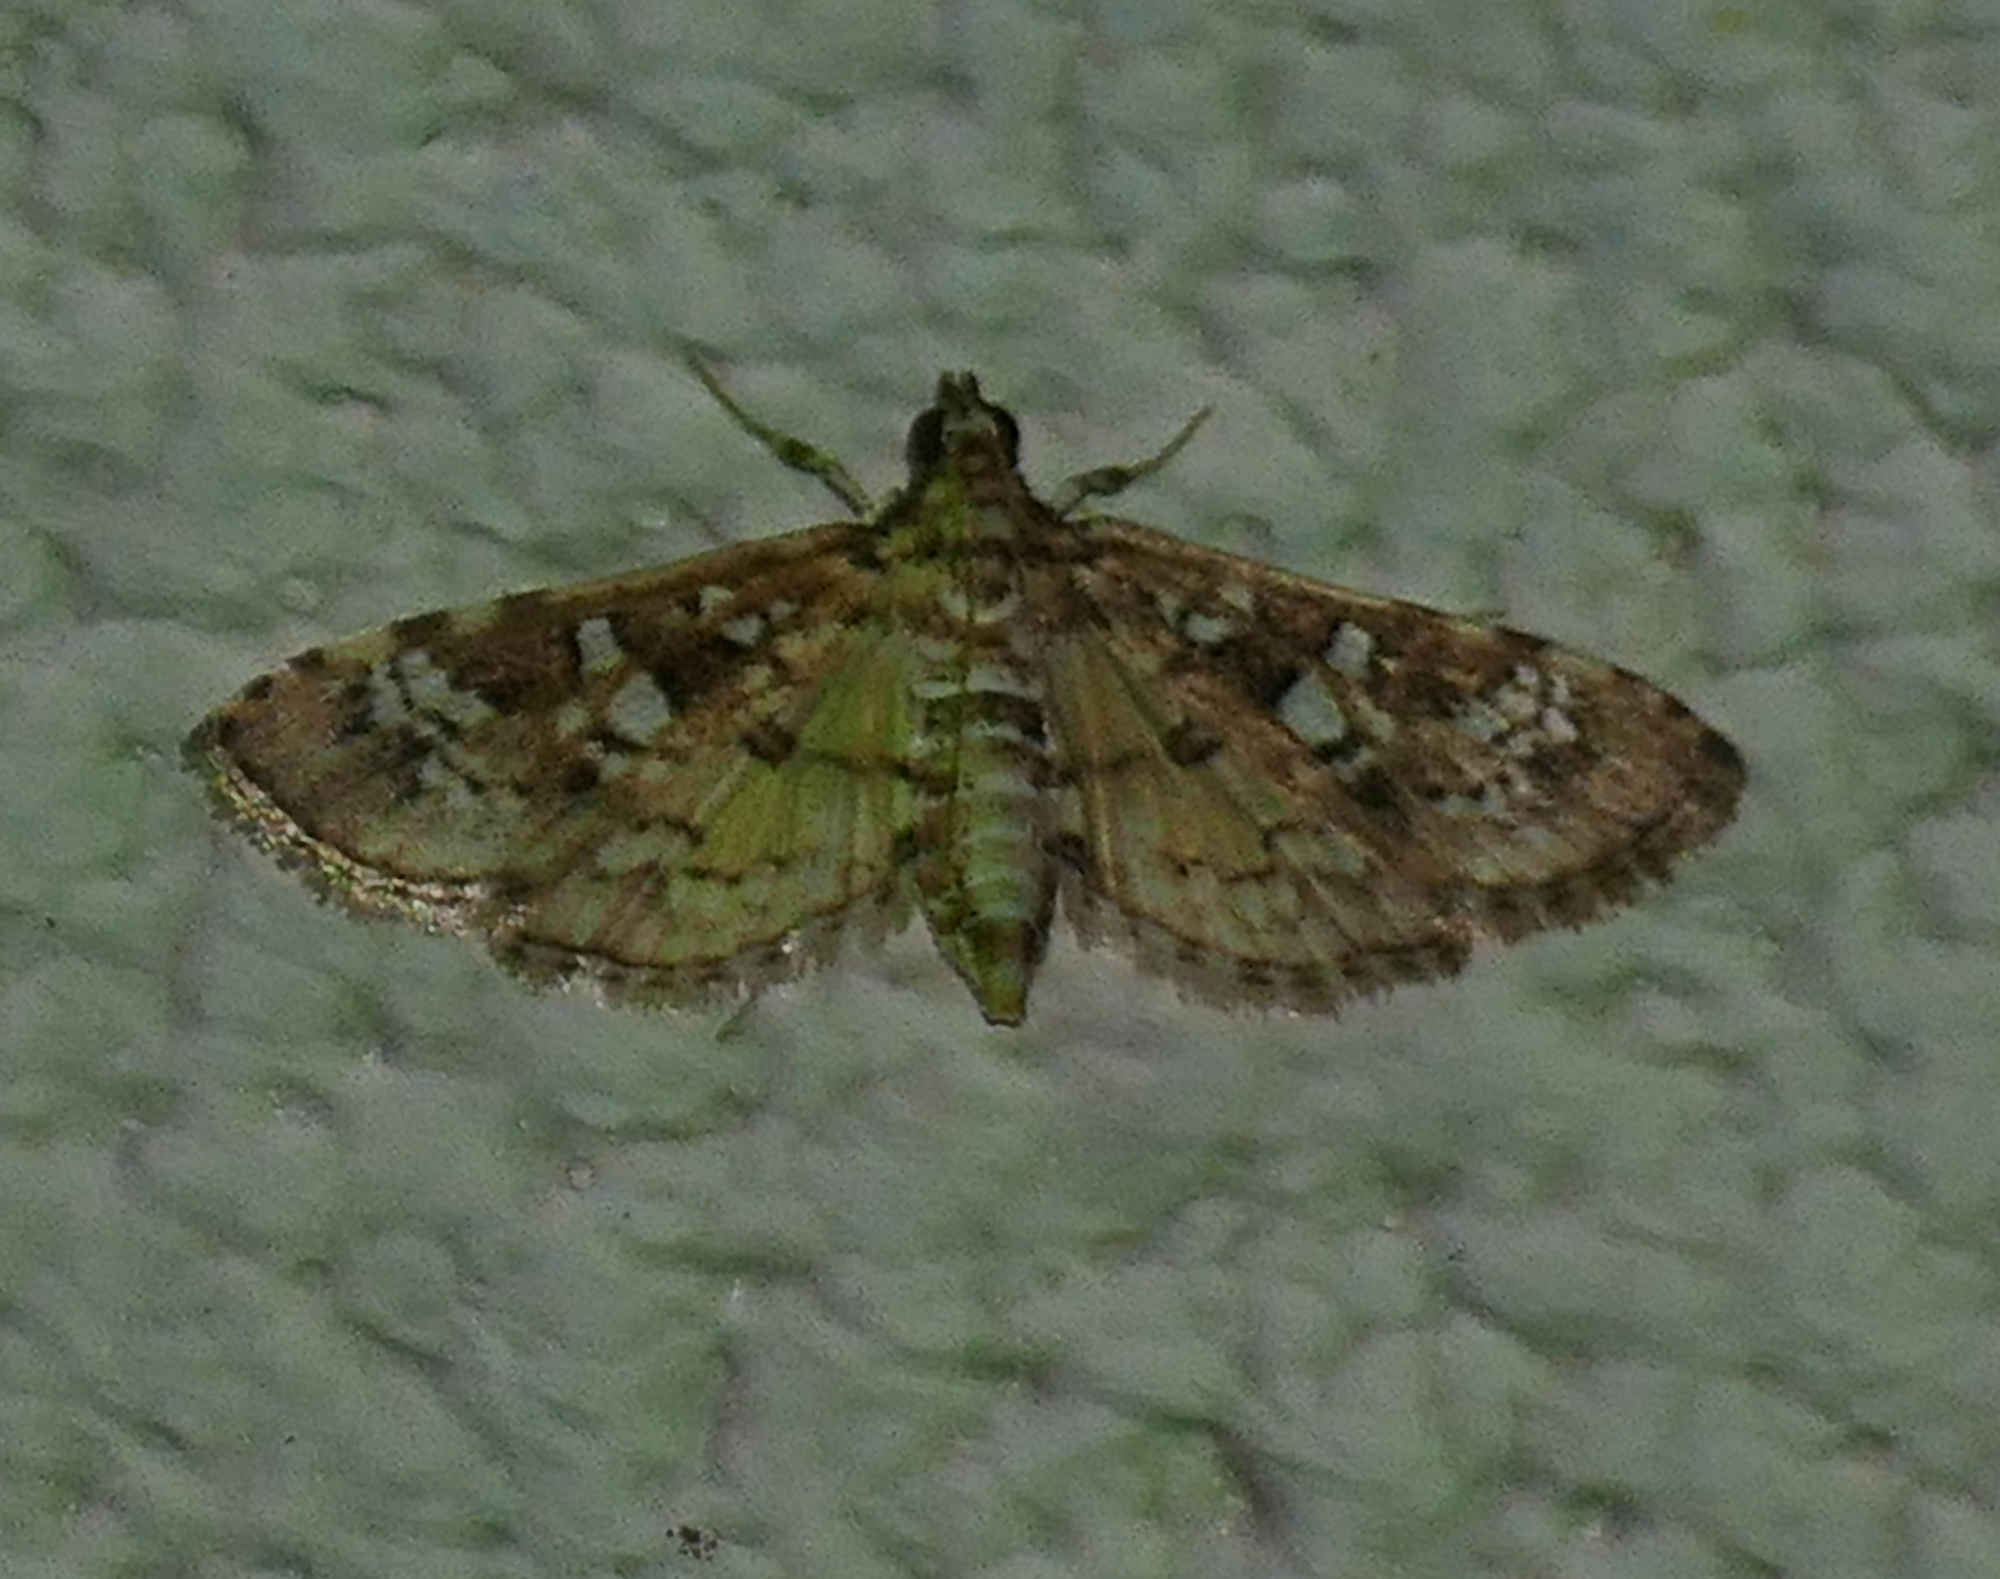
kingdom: Animalia
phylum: Arthropoda
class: Insecta
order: Lepidoptera
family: Crambidae
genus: Samea
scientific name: Samea multiplicalis
